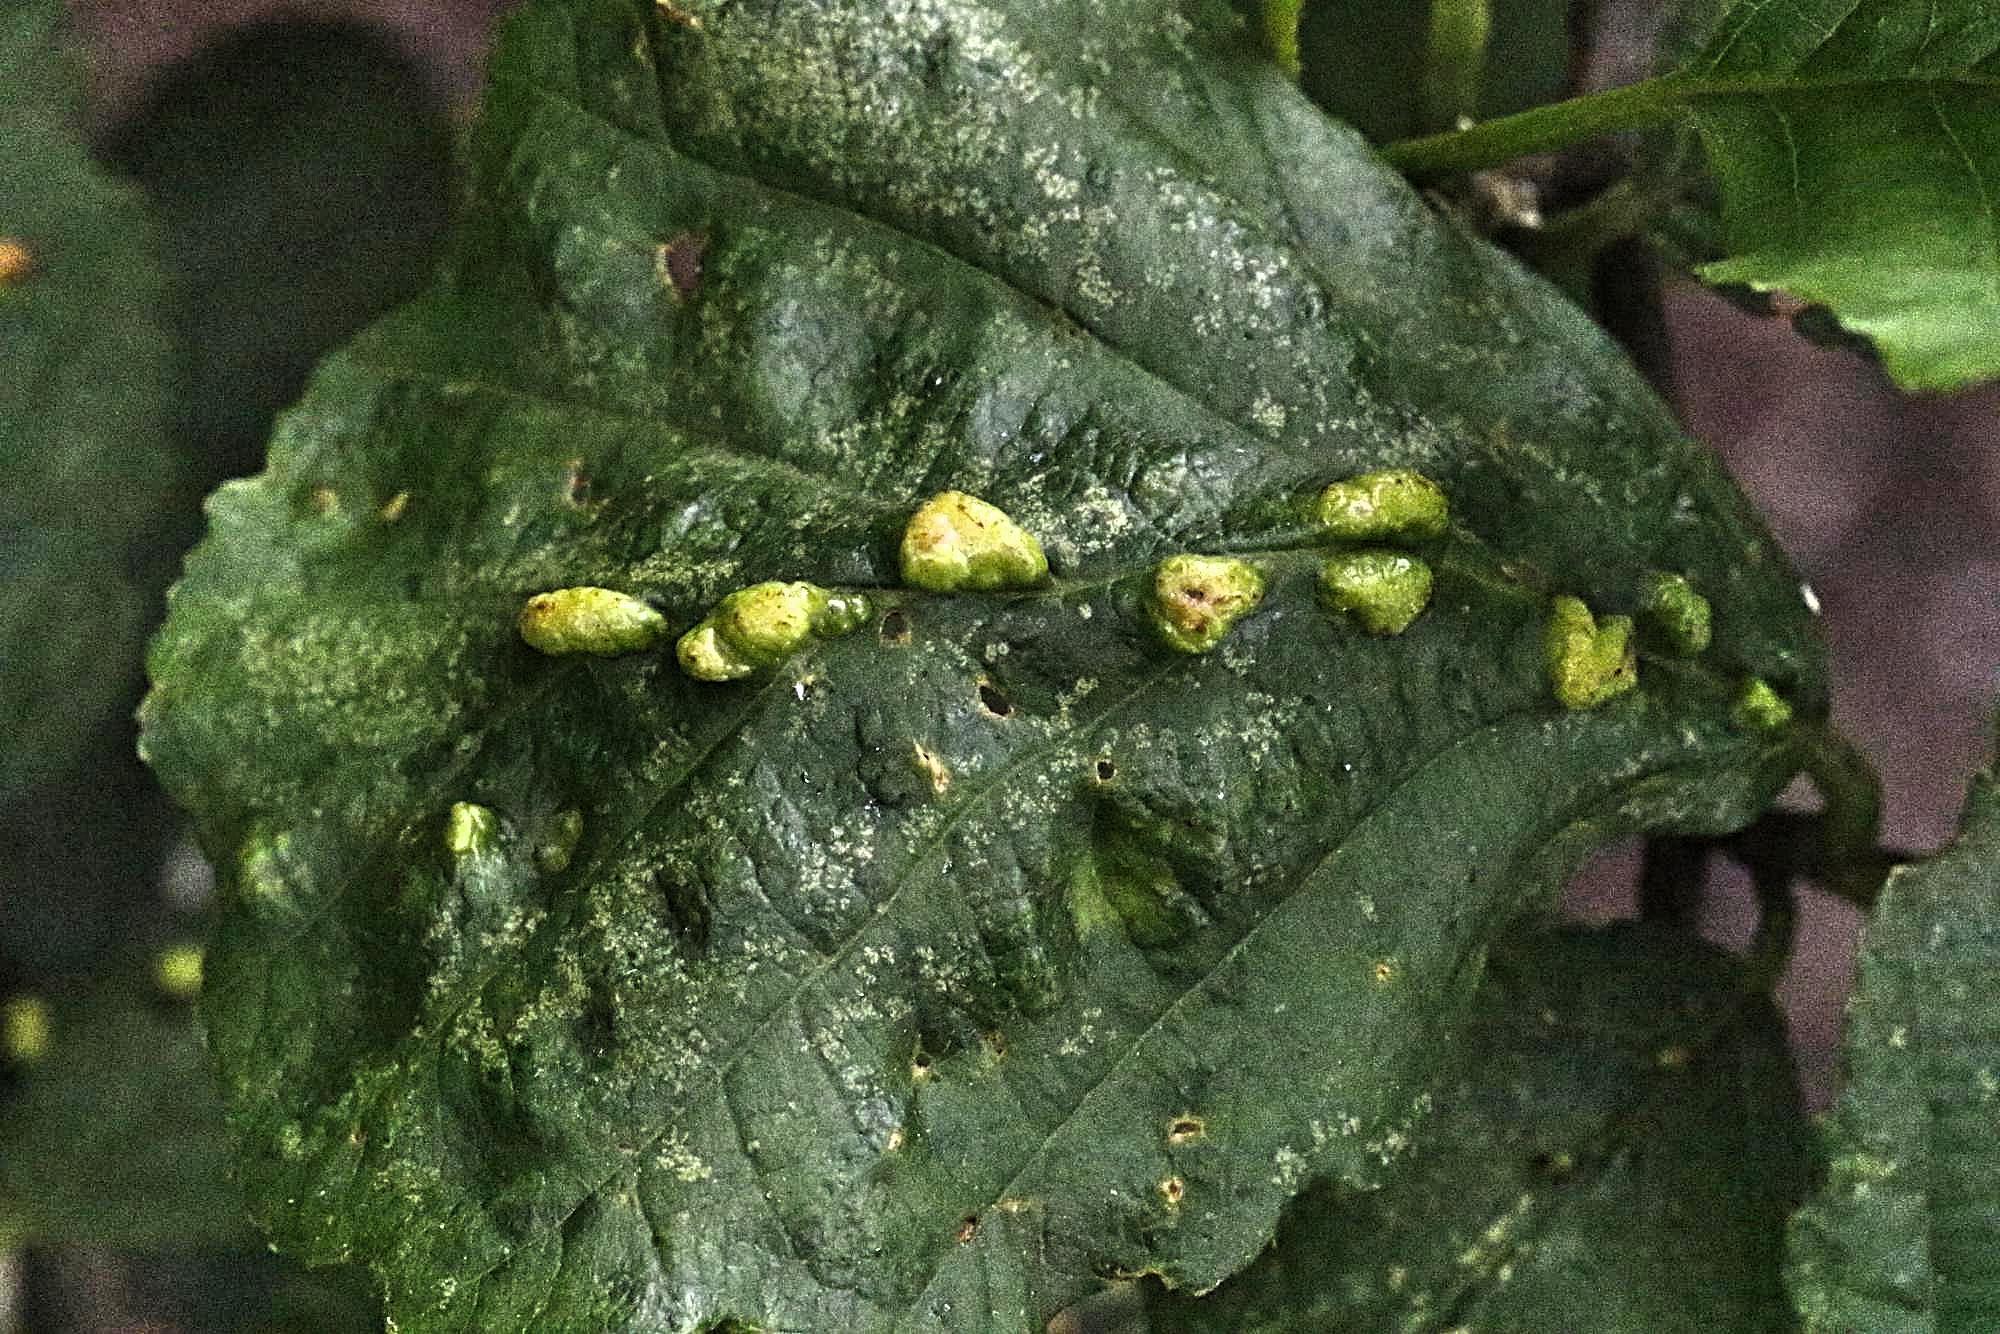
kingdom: Animalia
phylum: Arthropoda
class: Arachnida
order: Trombidiformes
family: Eriophyidae
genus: Eriophyes
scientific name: Eriophyes inangulis
